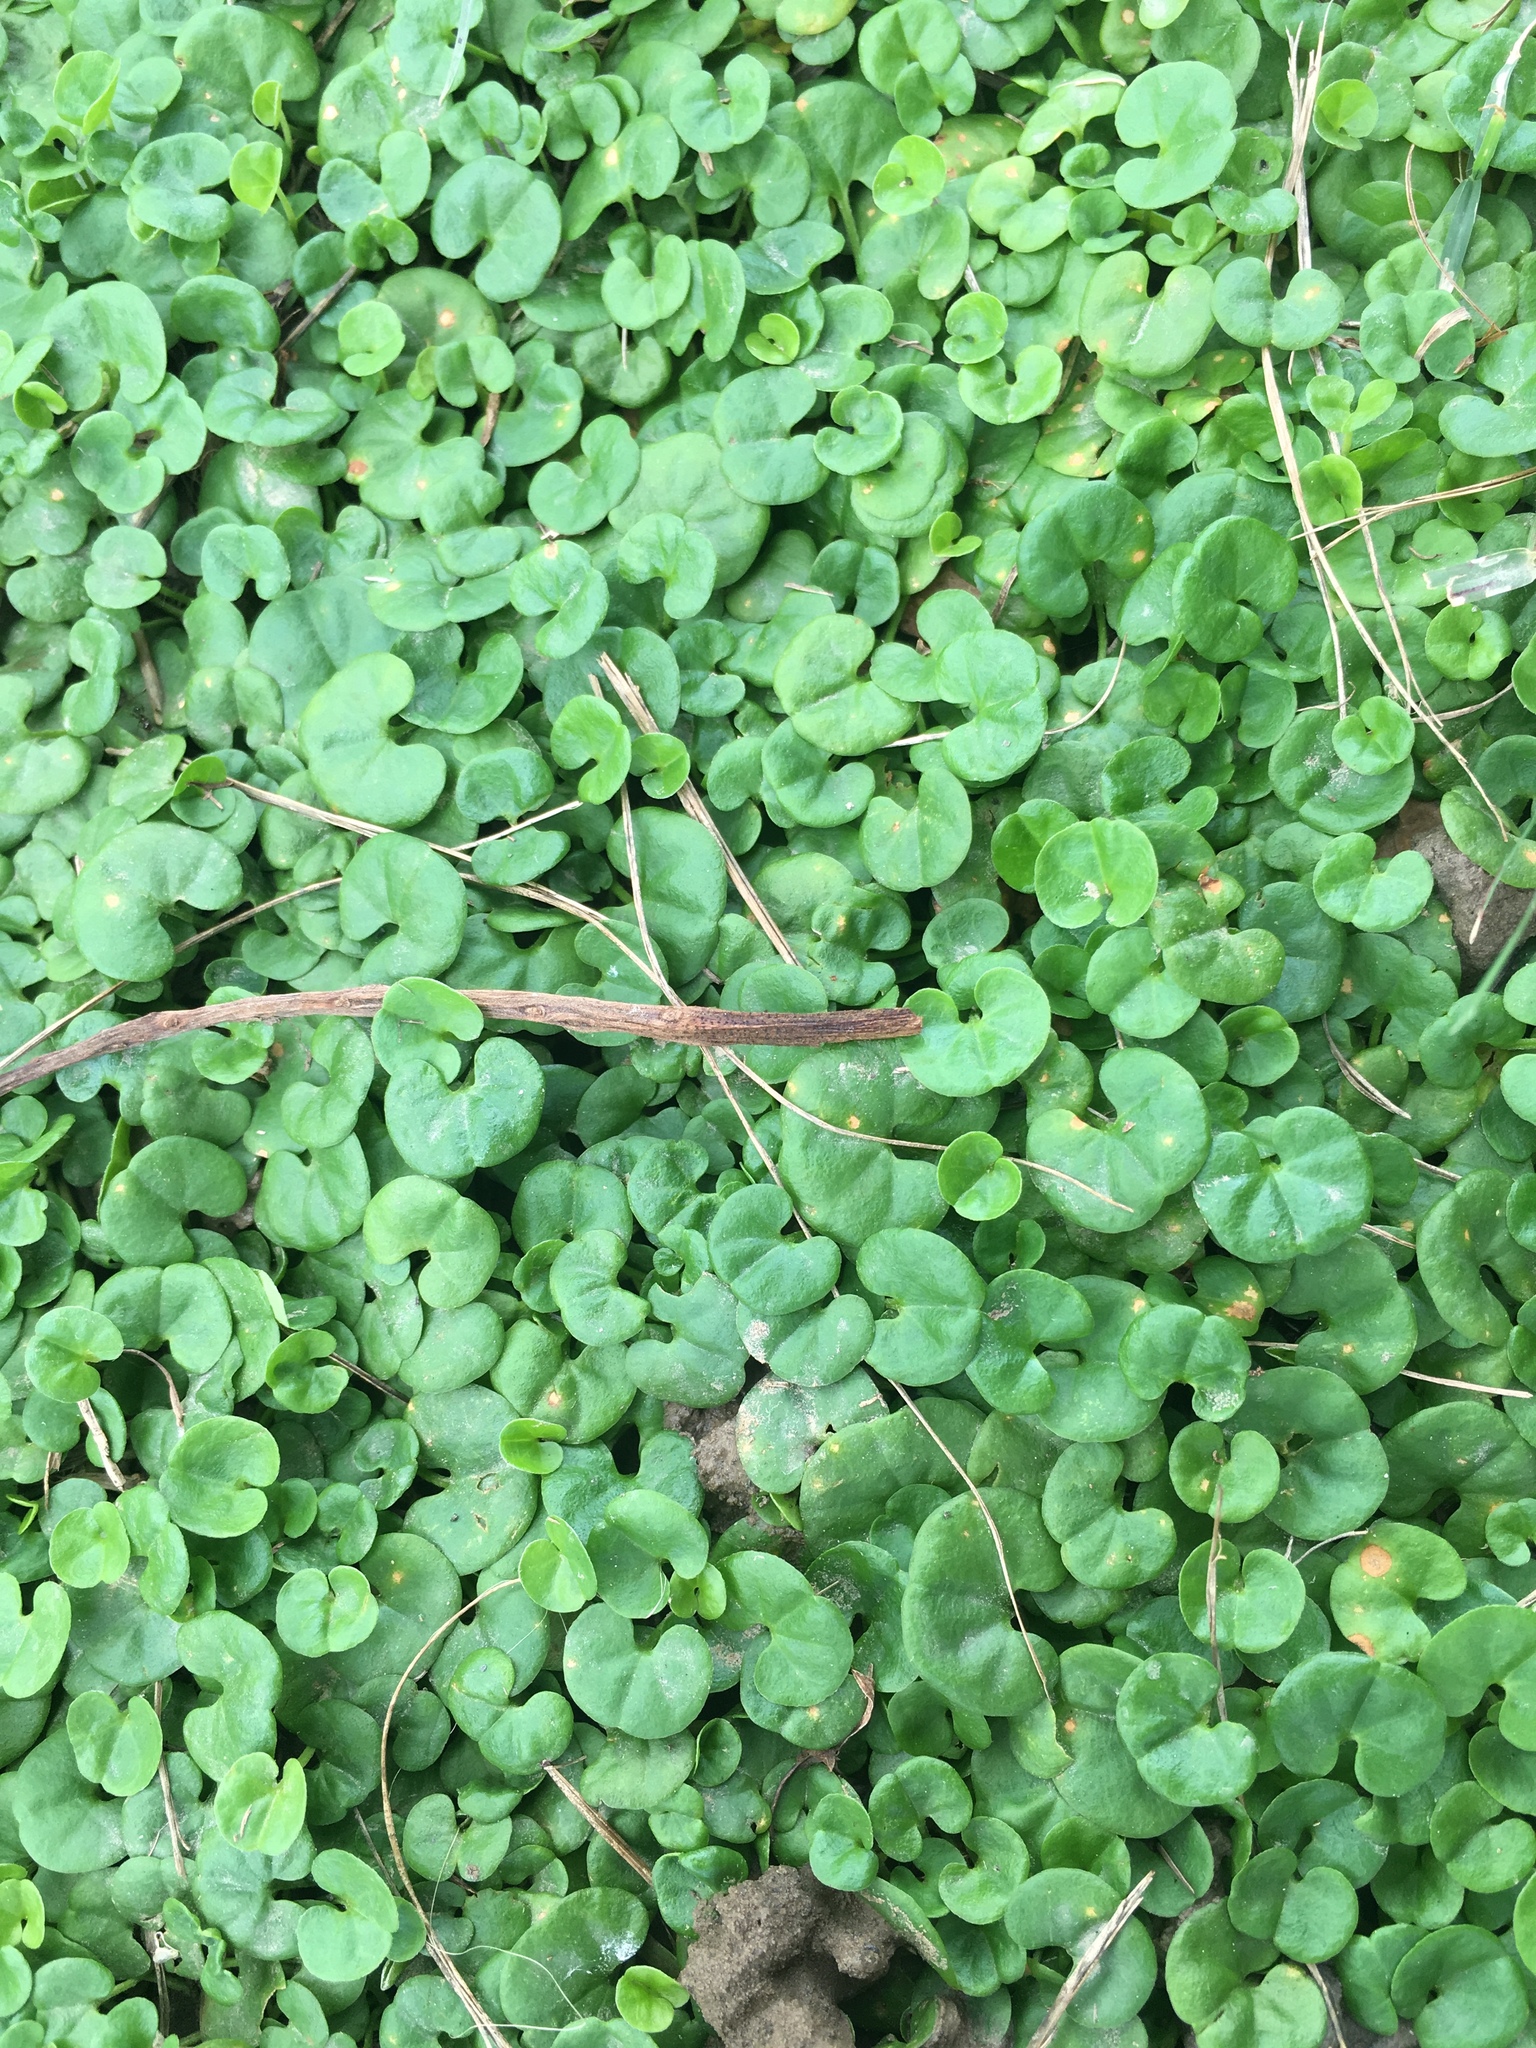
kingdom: Plantae
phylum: Tracheophyta
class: Magnoliopsida
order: Solanales
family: Convolvulaceae
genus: Dichondra
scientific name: Dichondra micrantha
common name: Kidneyweed
